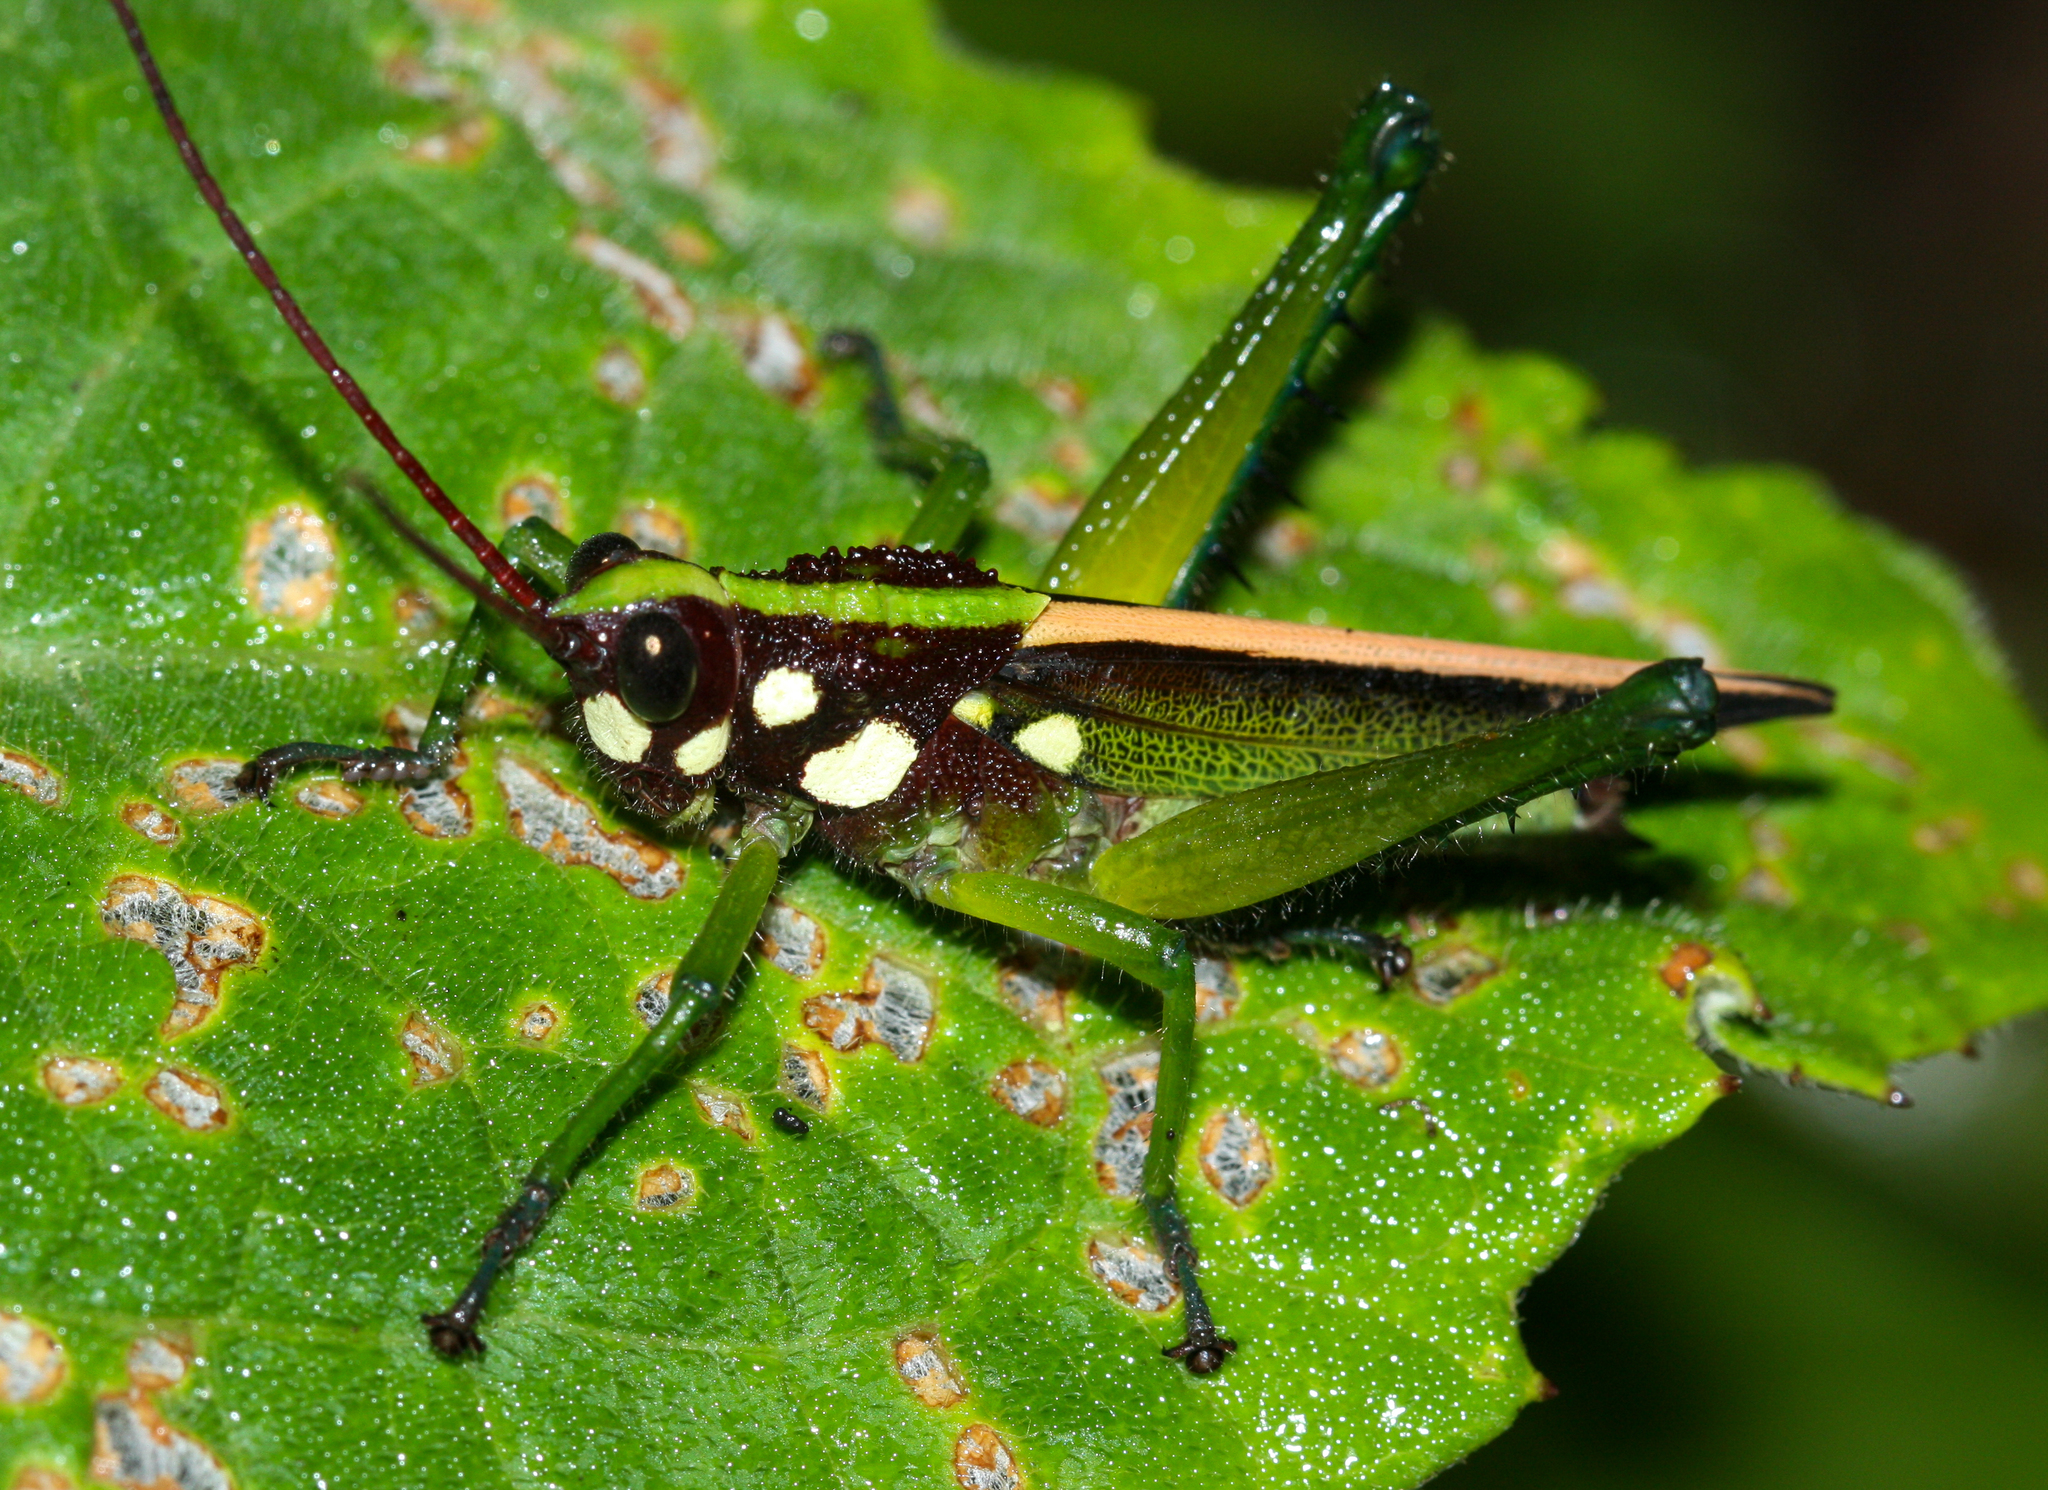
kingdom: Animalia
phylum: Arthropoda
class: Insecta
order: Orthoptera
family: Romaleidae
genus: Agriacris
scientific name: Agriacris magnifica
